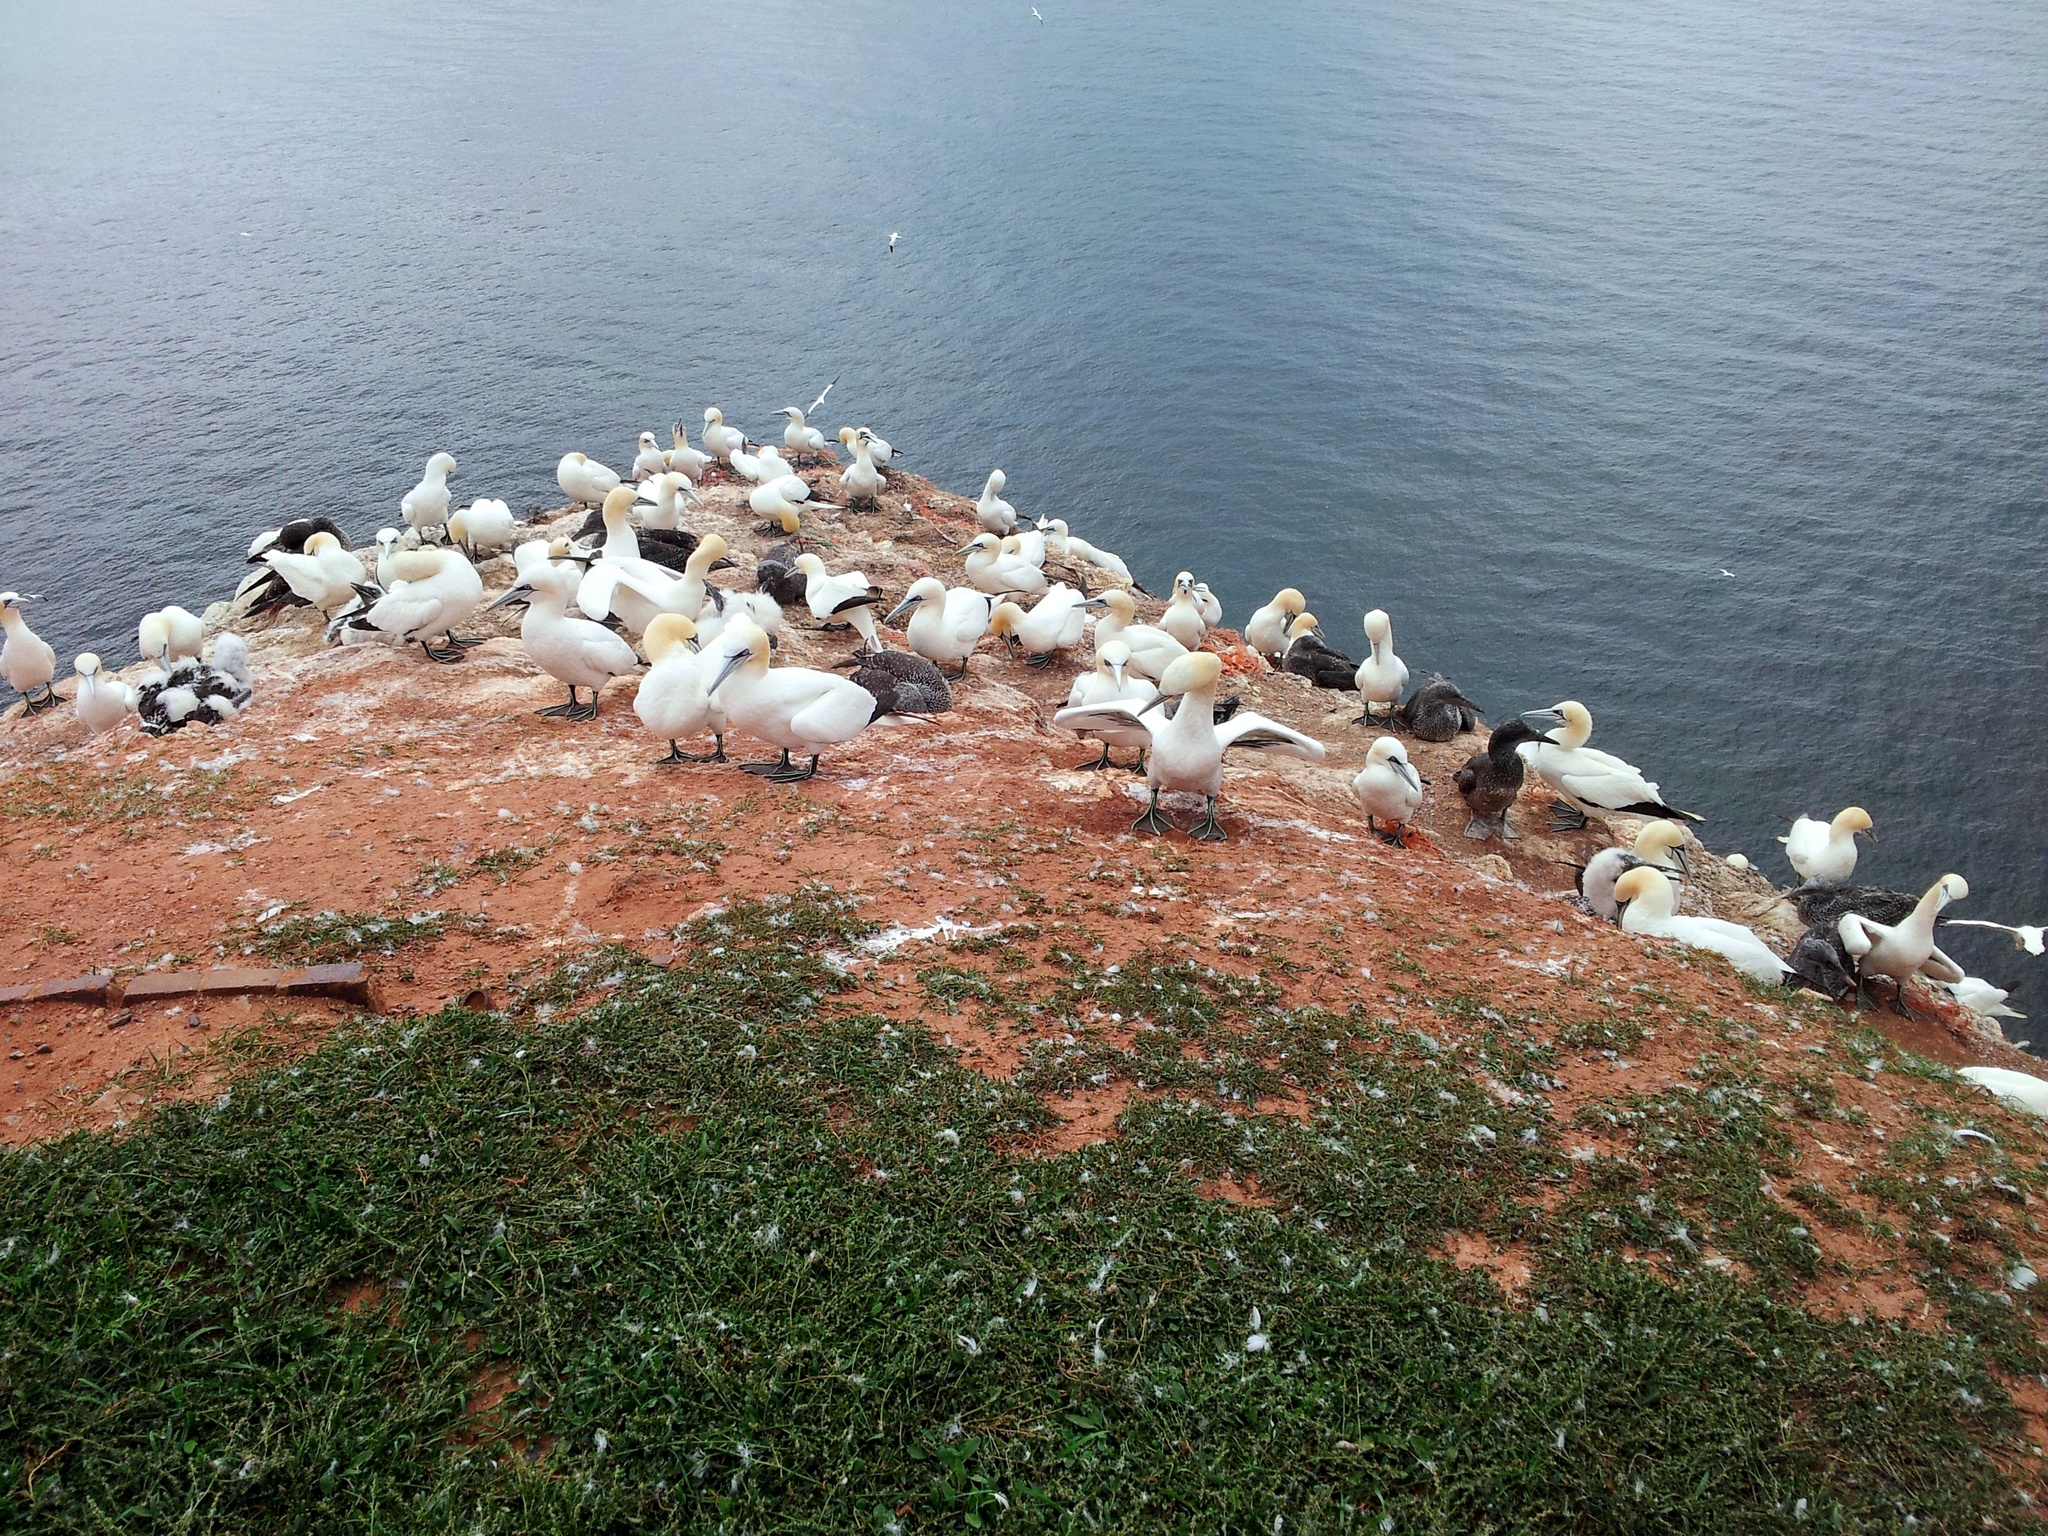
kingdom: Animalia
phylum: Chordata
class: Aves
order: Suliformes
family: Sulidae
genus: Morus
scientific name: Morus bassanus
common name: Northern gannet
